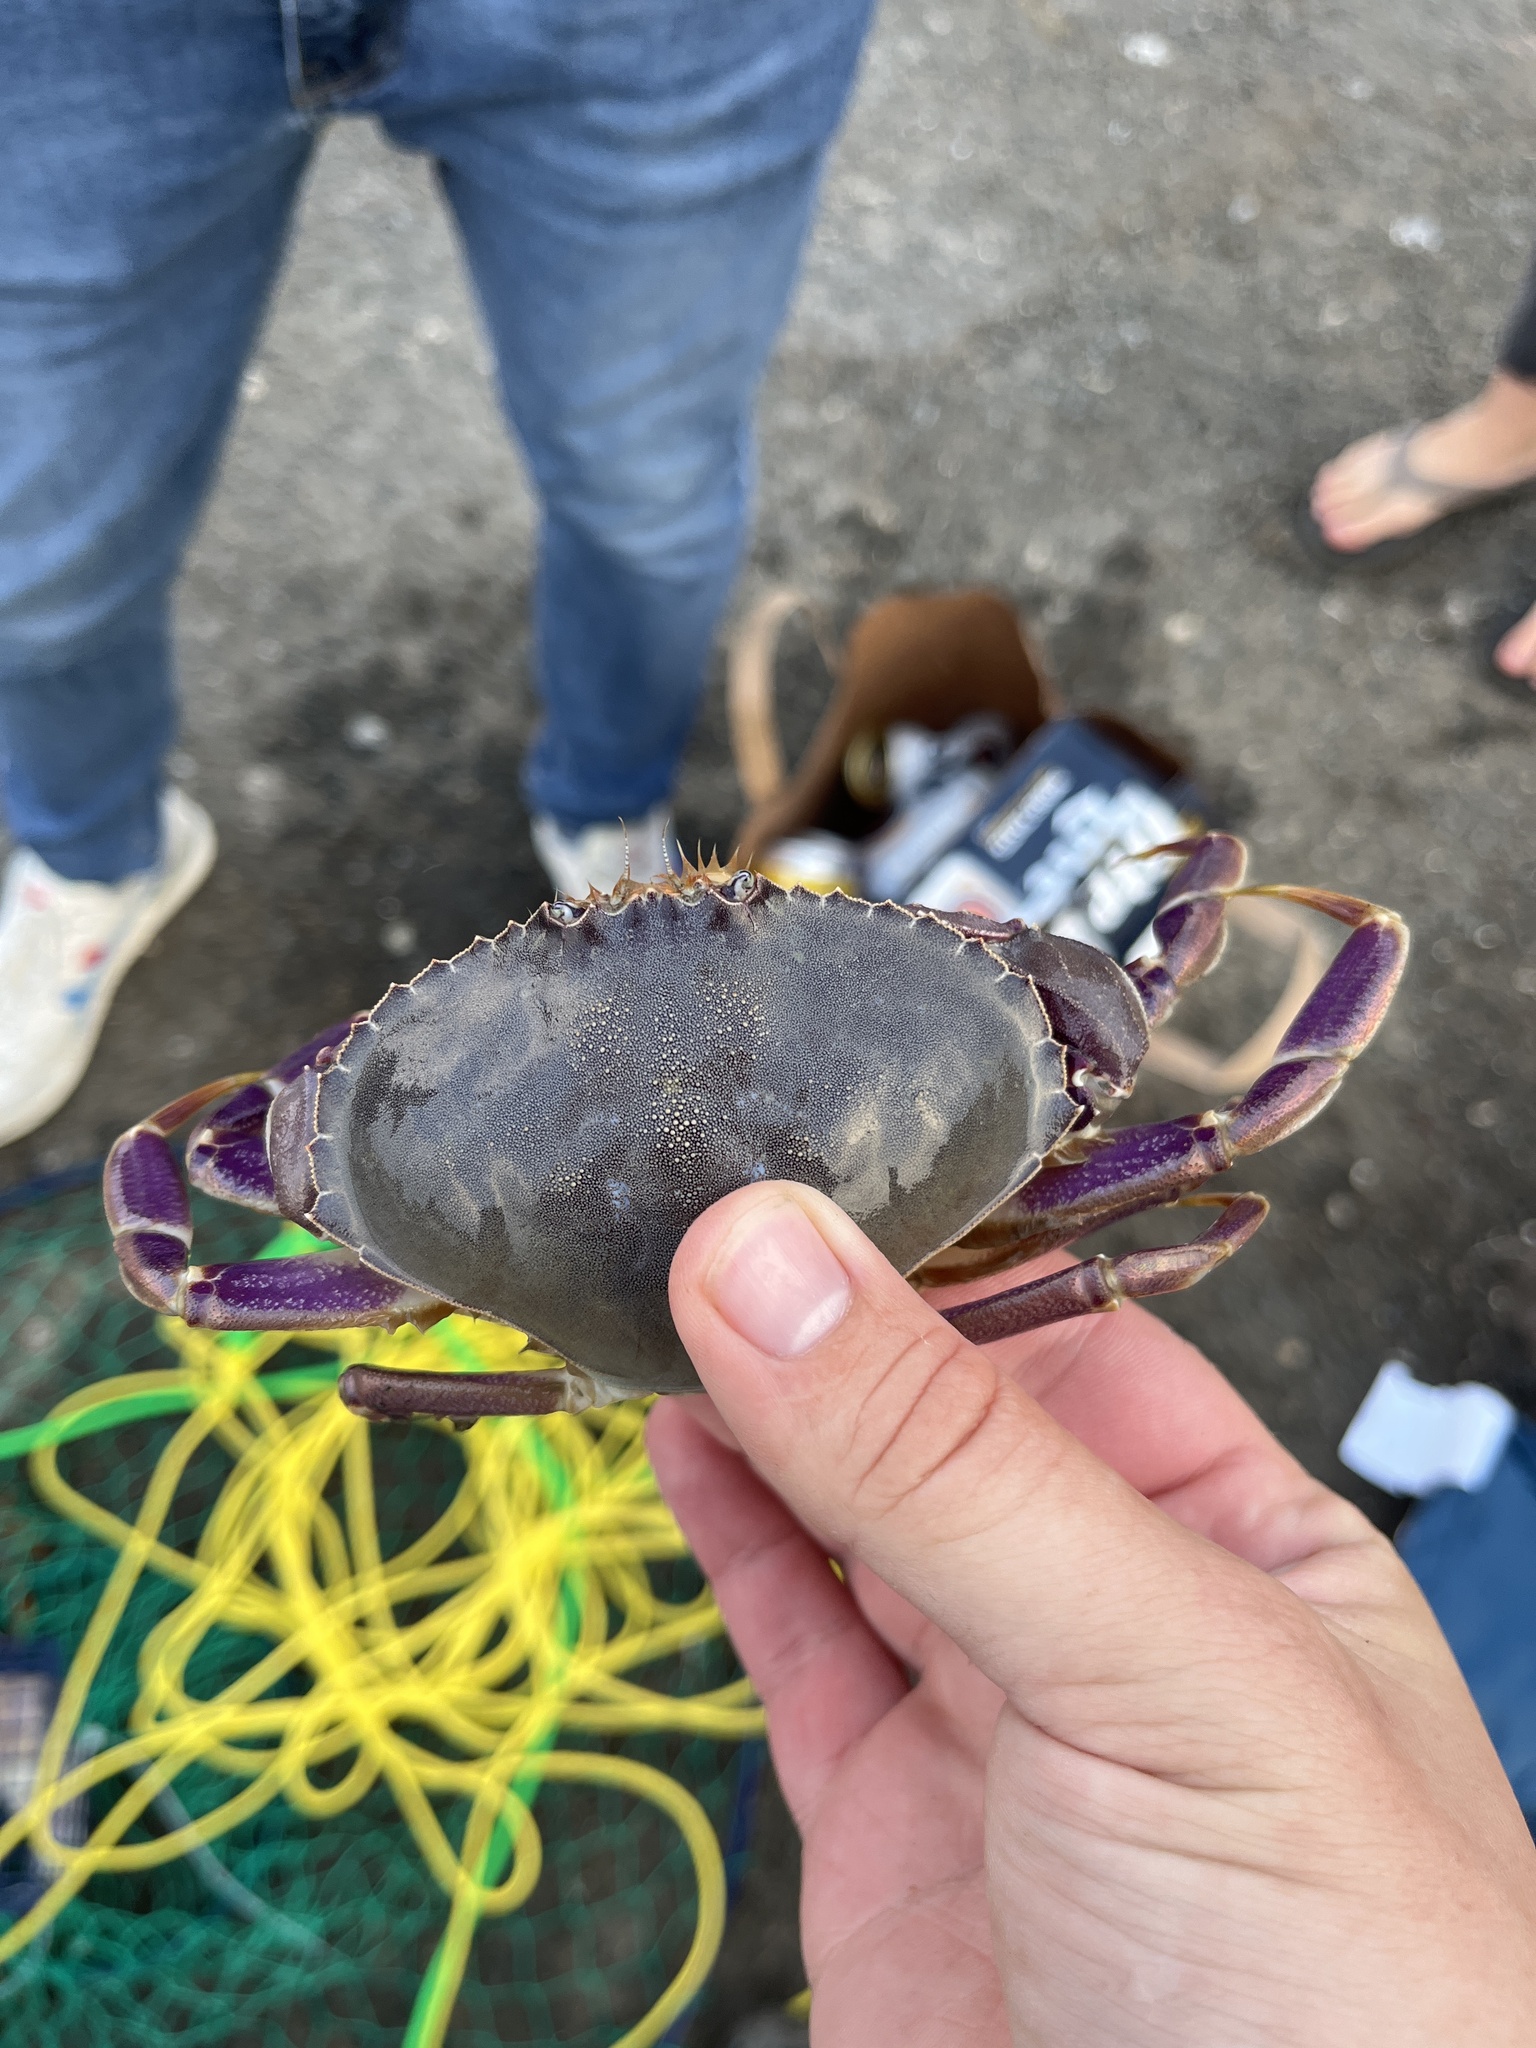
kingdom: Animalia
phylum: Arthropoda
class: Malacostraca
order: Decapoda
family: Cancridae
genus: Metacarcinus
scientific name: Metacarcinus gracilis
